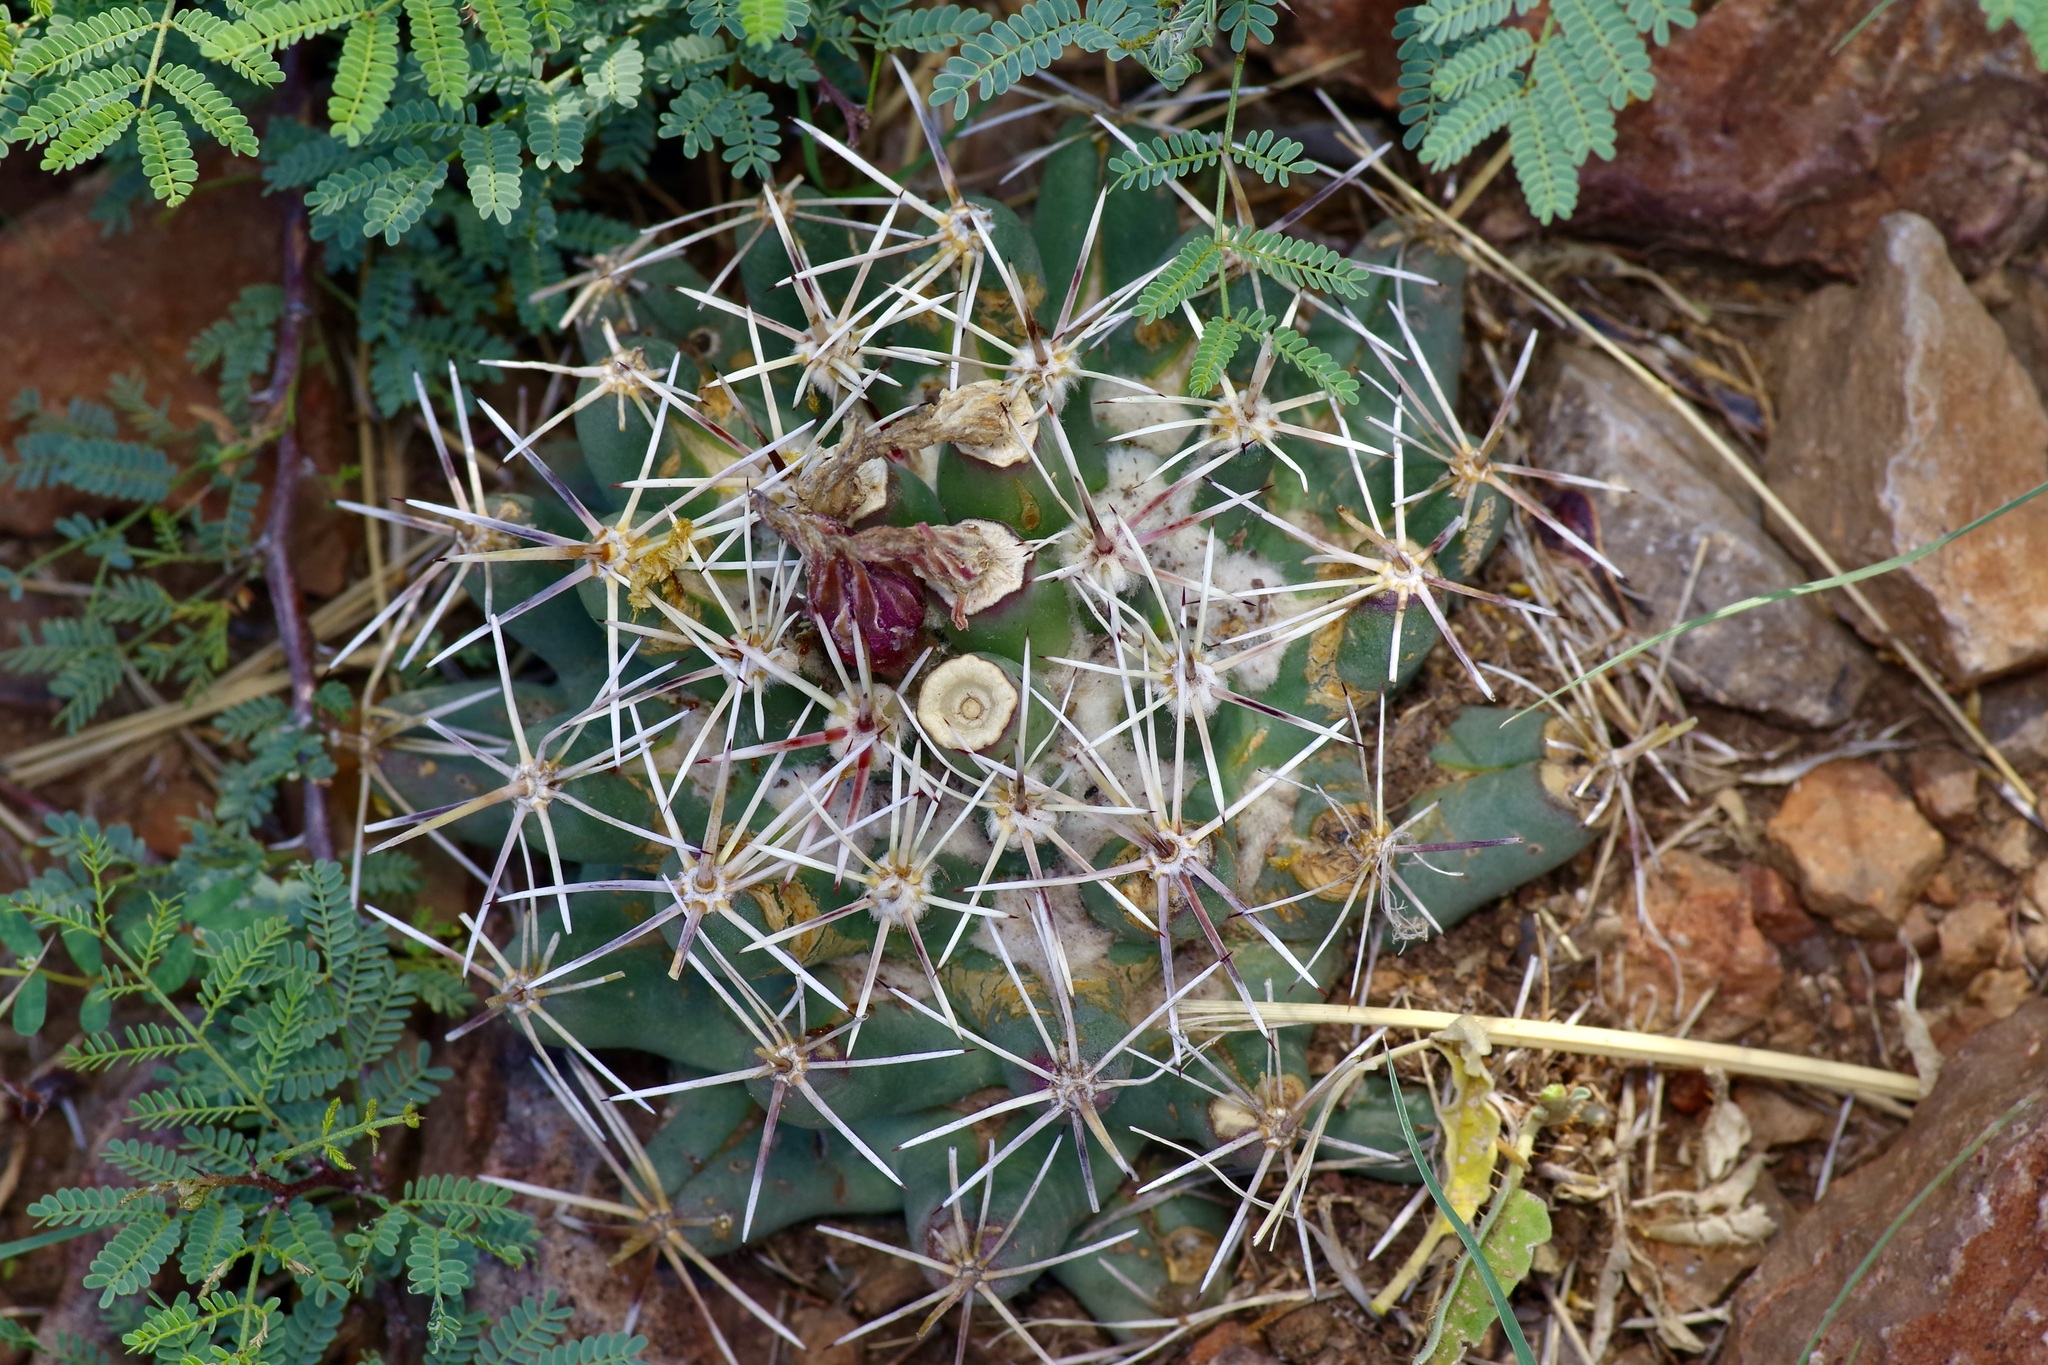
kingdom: Plantae
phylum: Tracheophyta
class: Magnoliopsida
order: Caryophyllales
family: Cactaceae
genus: Coryphantha
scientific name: Coryphantha robustispina
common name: Pima pineapple cactus
